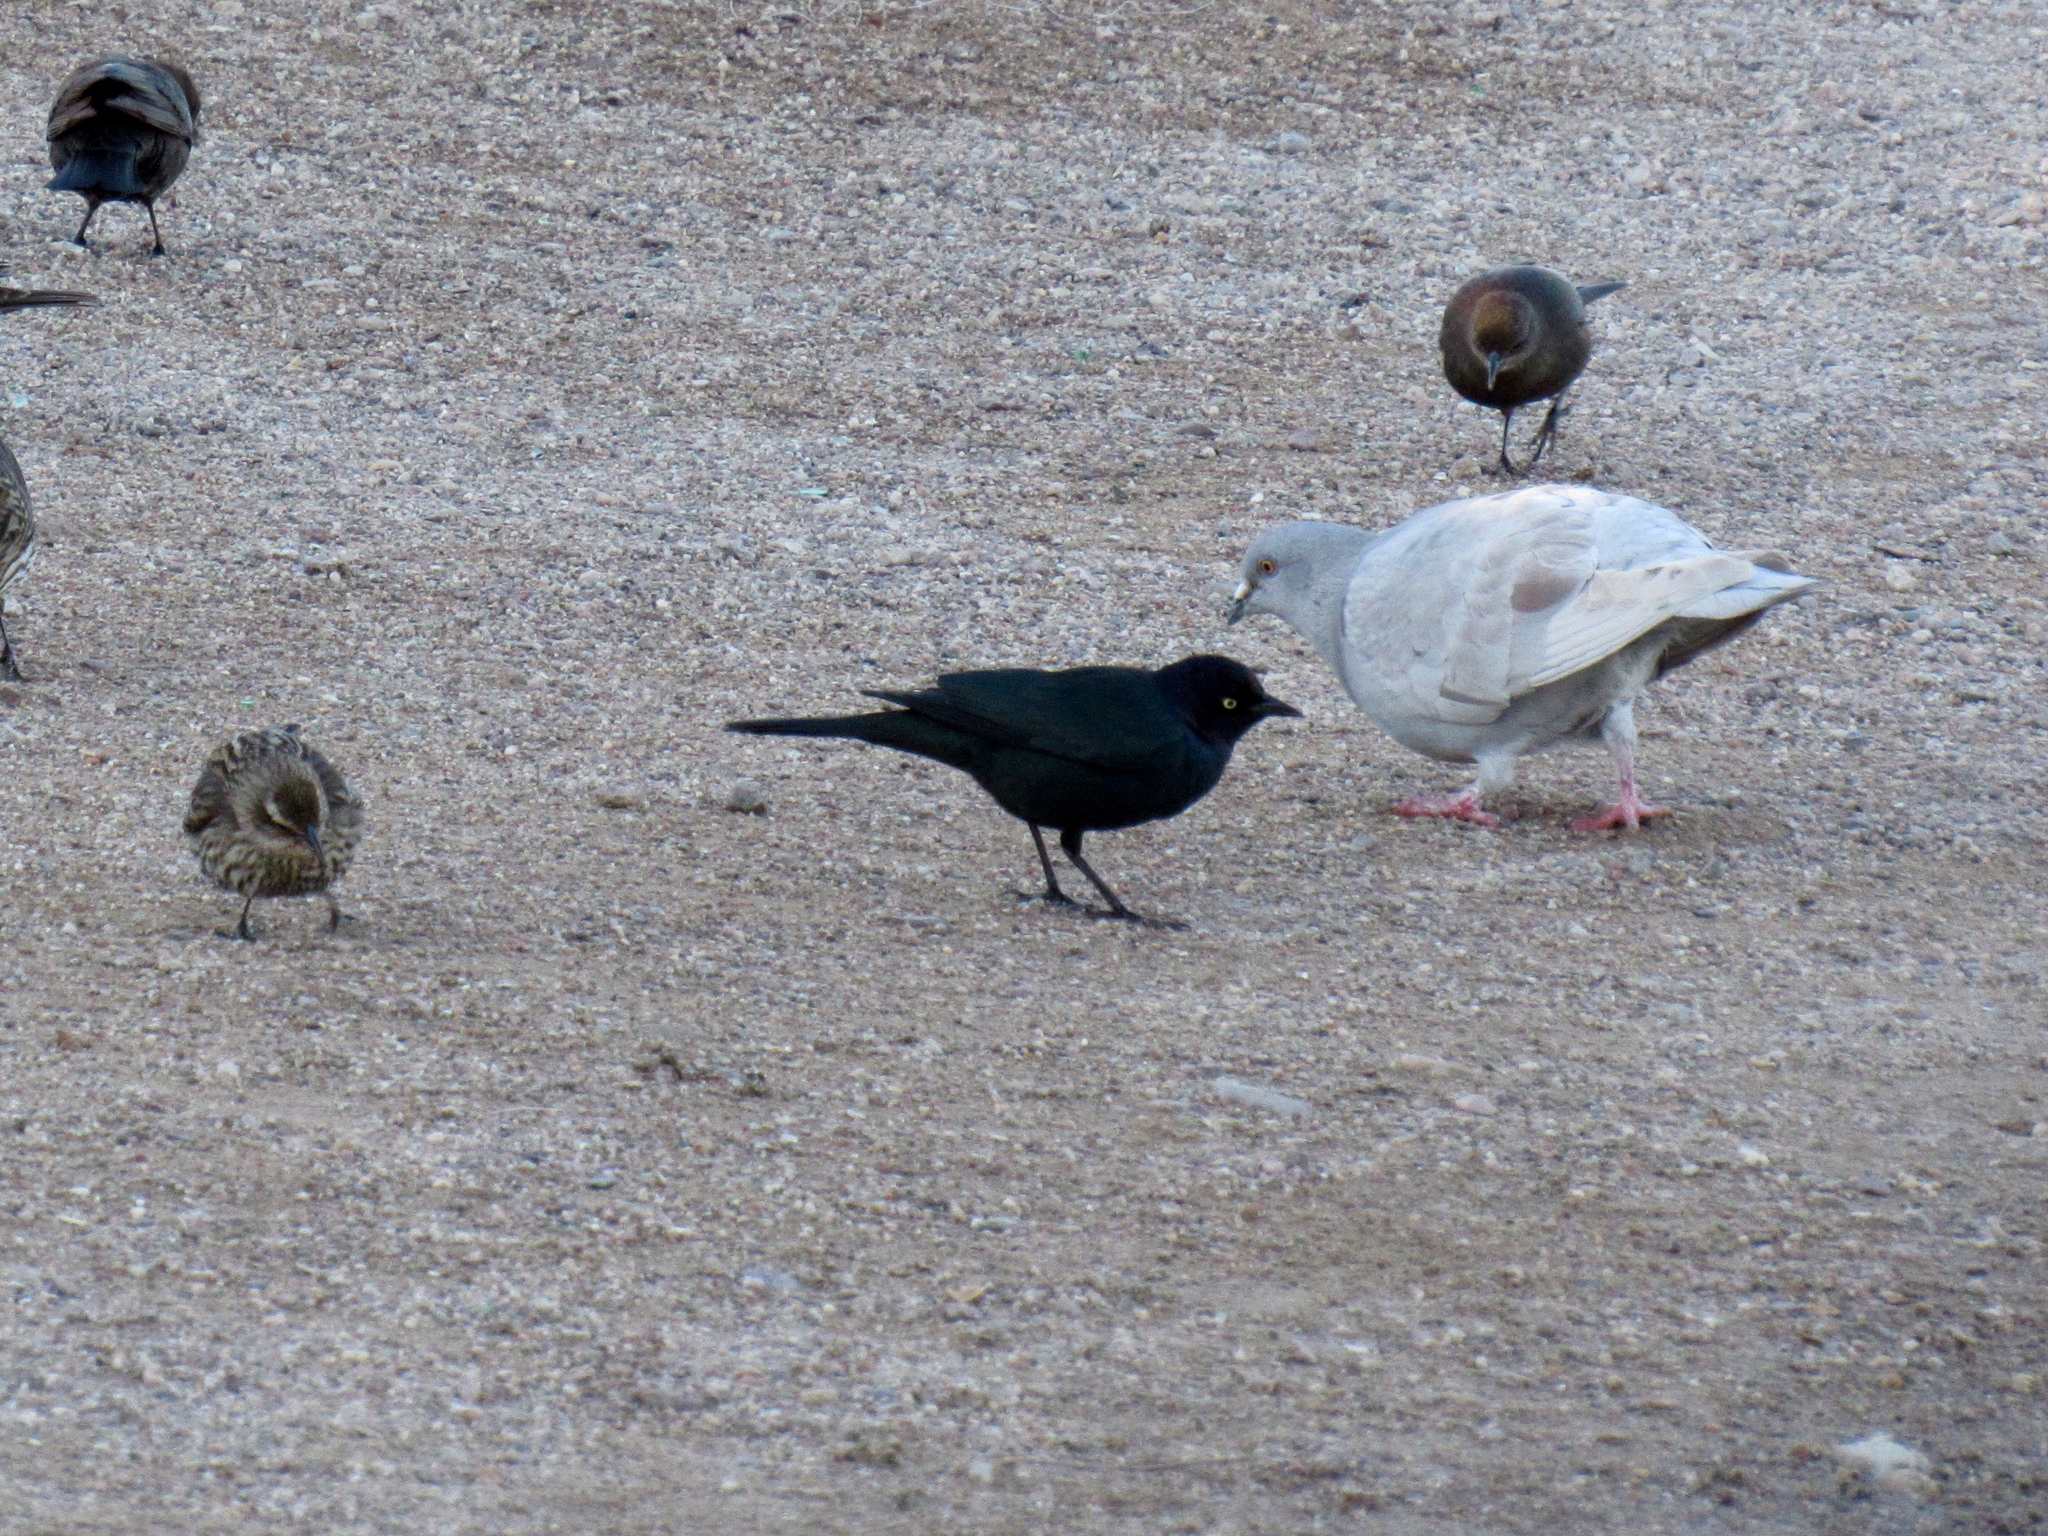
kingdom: Animalia
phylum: Chordata
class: Aves
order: Passeriformes
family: Icteridae
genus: Euphagus
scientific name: Euphagus cyanocephalus
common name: Brewer's blackbird
